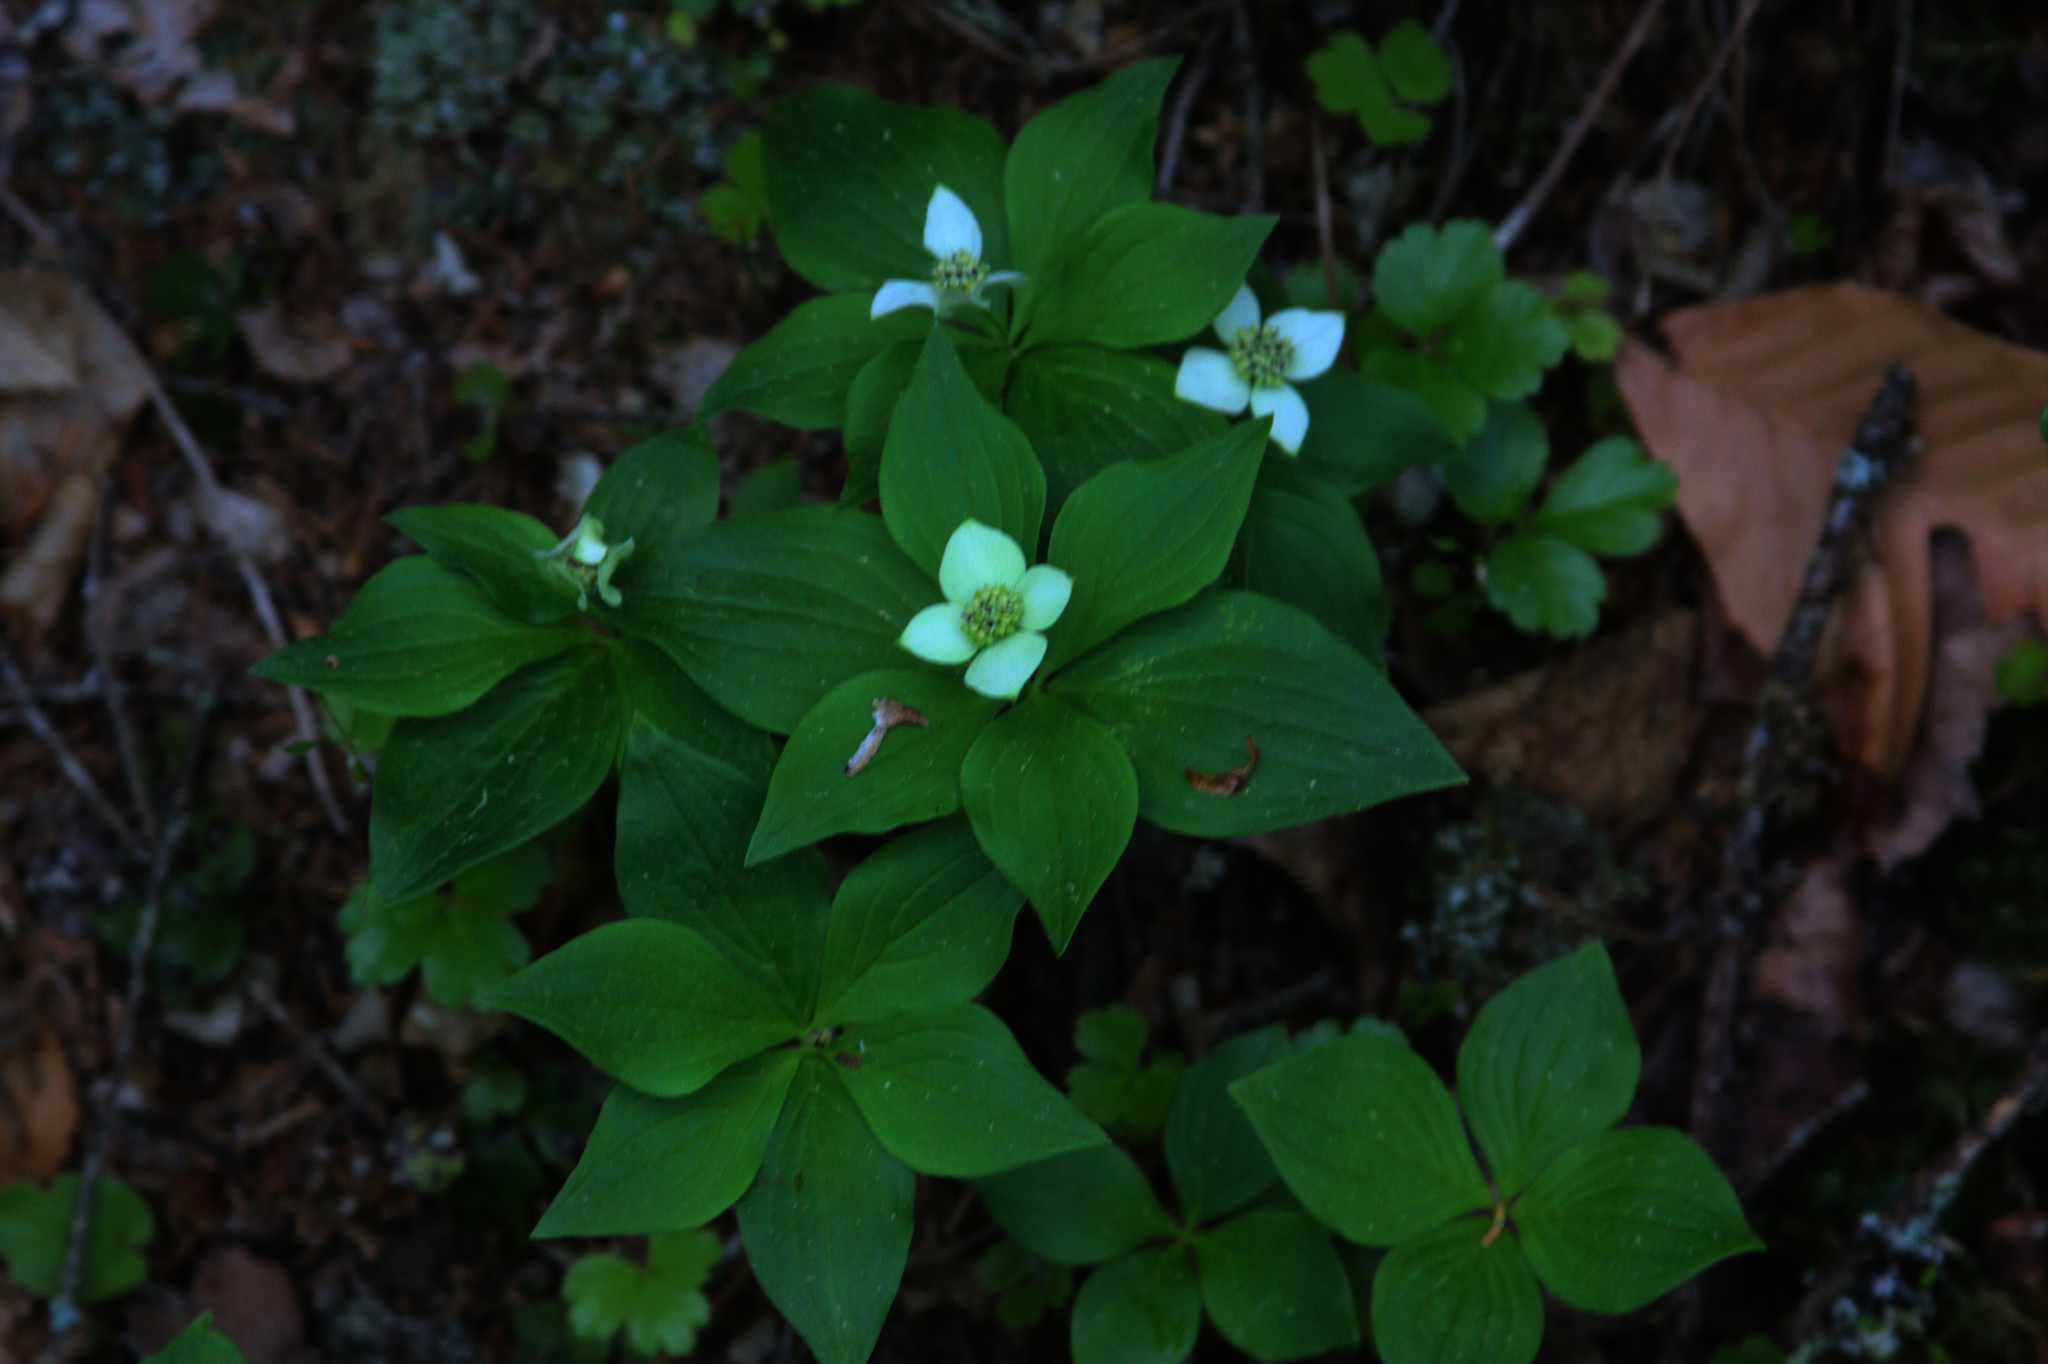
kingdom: Plantae
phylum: Tracheophyta
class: Magnoliopsida
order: Cornales
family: Cornaceae
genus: Cornus
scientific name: Cornus canadensis
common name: Creeping dogwood
